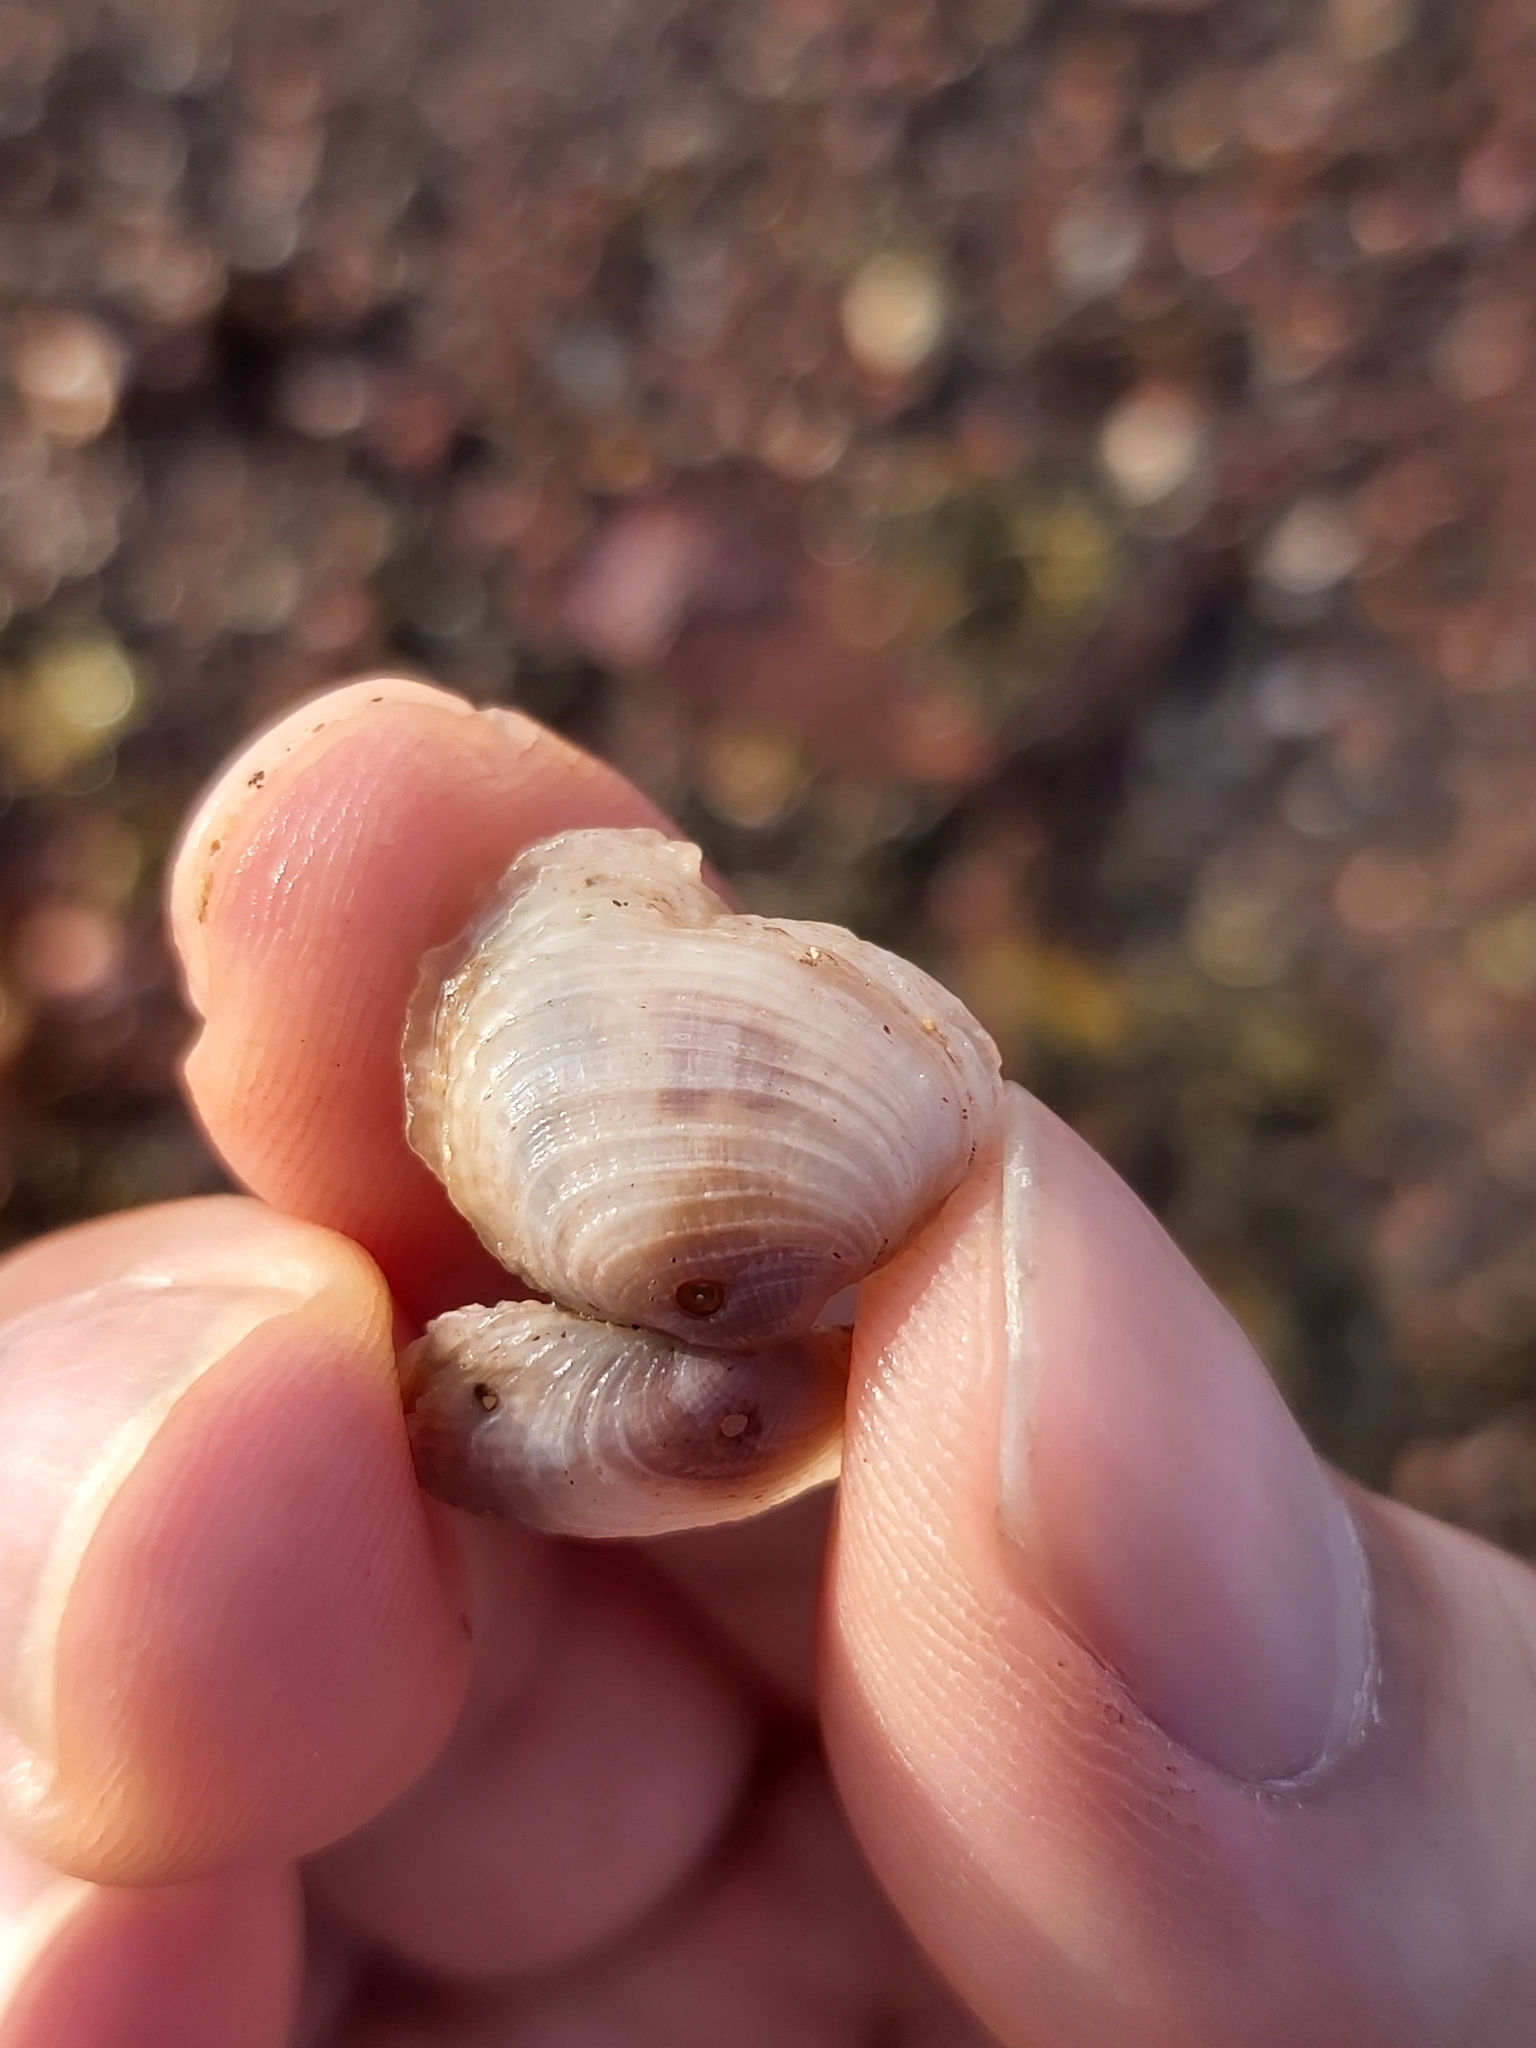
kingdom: Animalia
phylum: Mollusca
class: Bivalvia
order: Venerida
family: Veneridae
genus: Irus
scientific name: Irus cumingii
